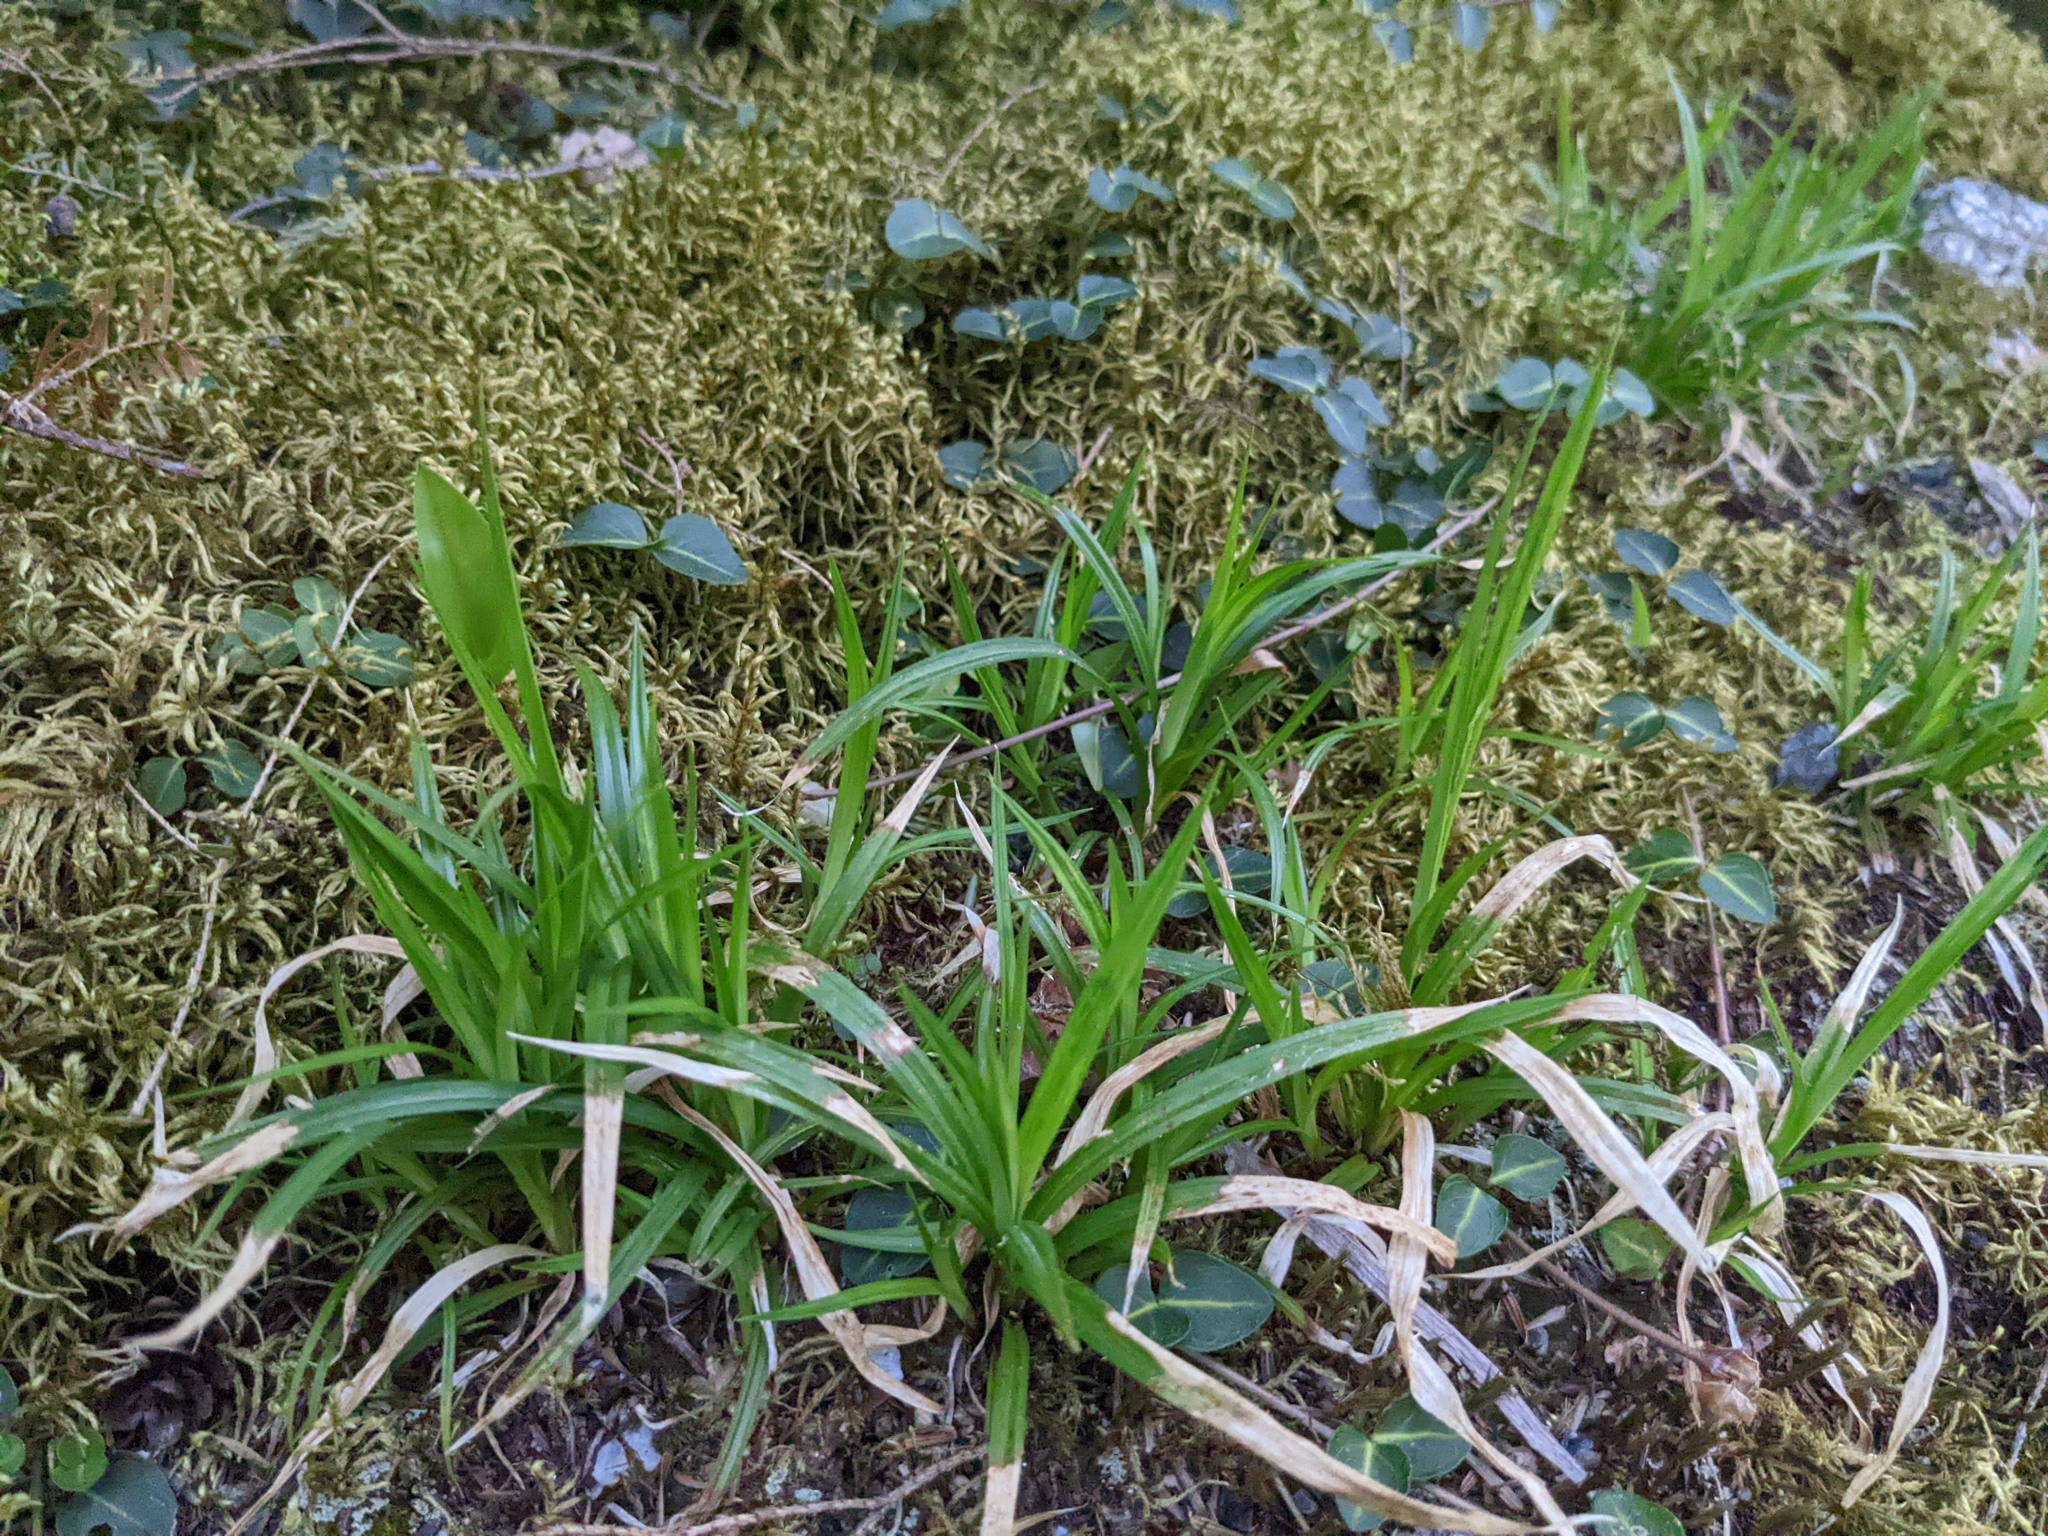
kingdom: Plantae
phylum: Tracheophyta
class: Magnoliopsida
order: Gentianales
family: Rubiaceae
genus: Mitchella
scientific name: Mitchella repens
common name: Partridge-berry
